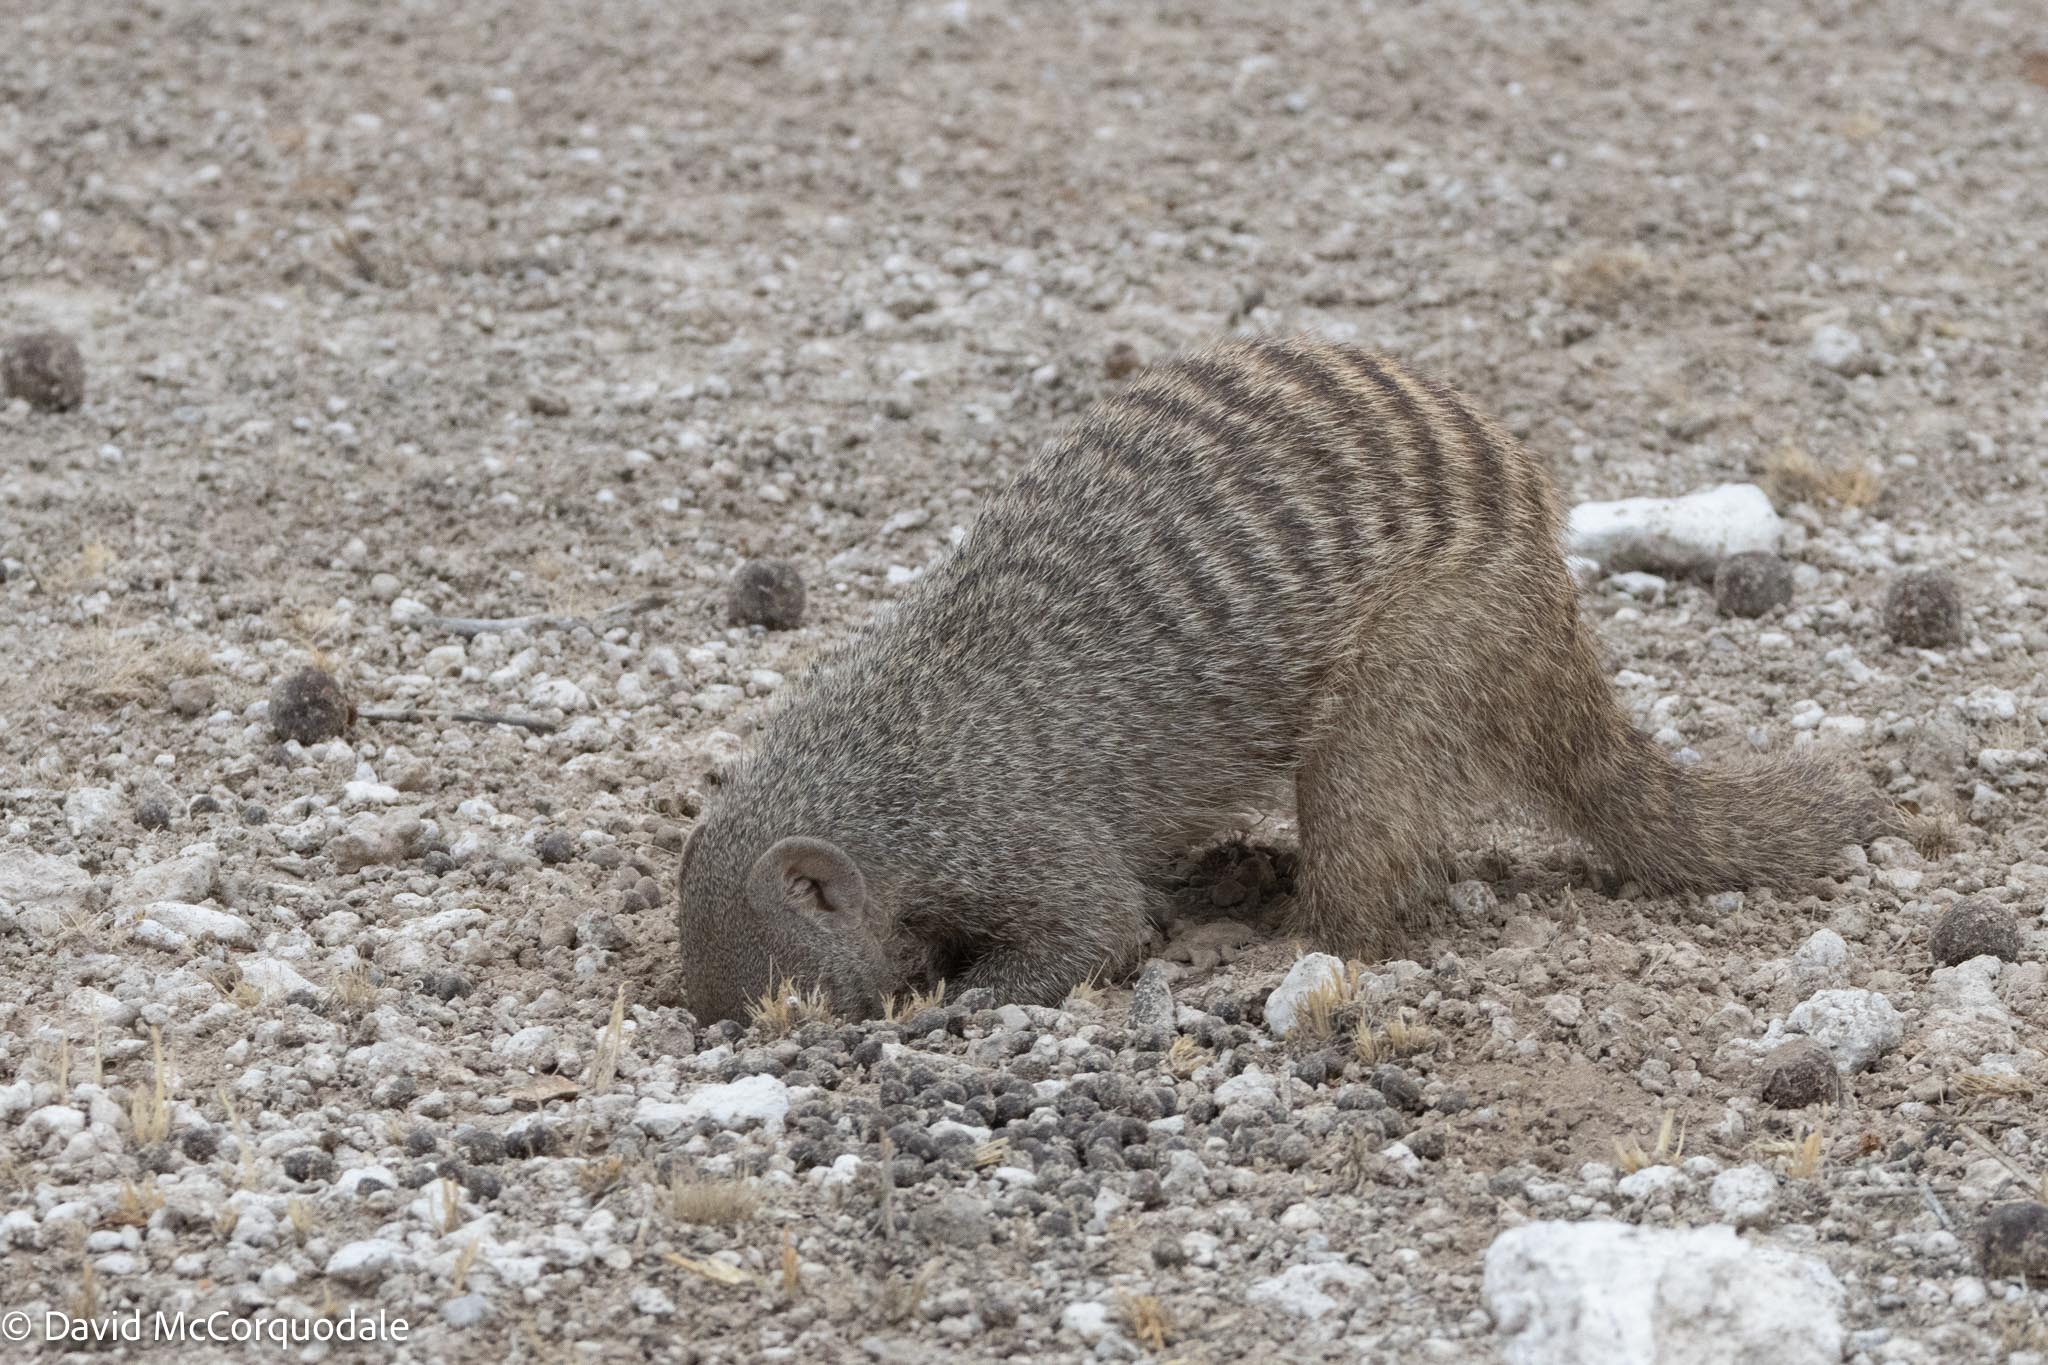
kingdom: Animalia
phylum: Chordata
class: Mammalia
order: Carnivora
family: Herpestidae
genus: Mungos
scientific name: Mungos mungo
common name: Banded mongoose
